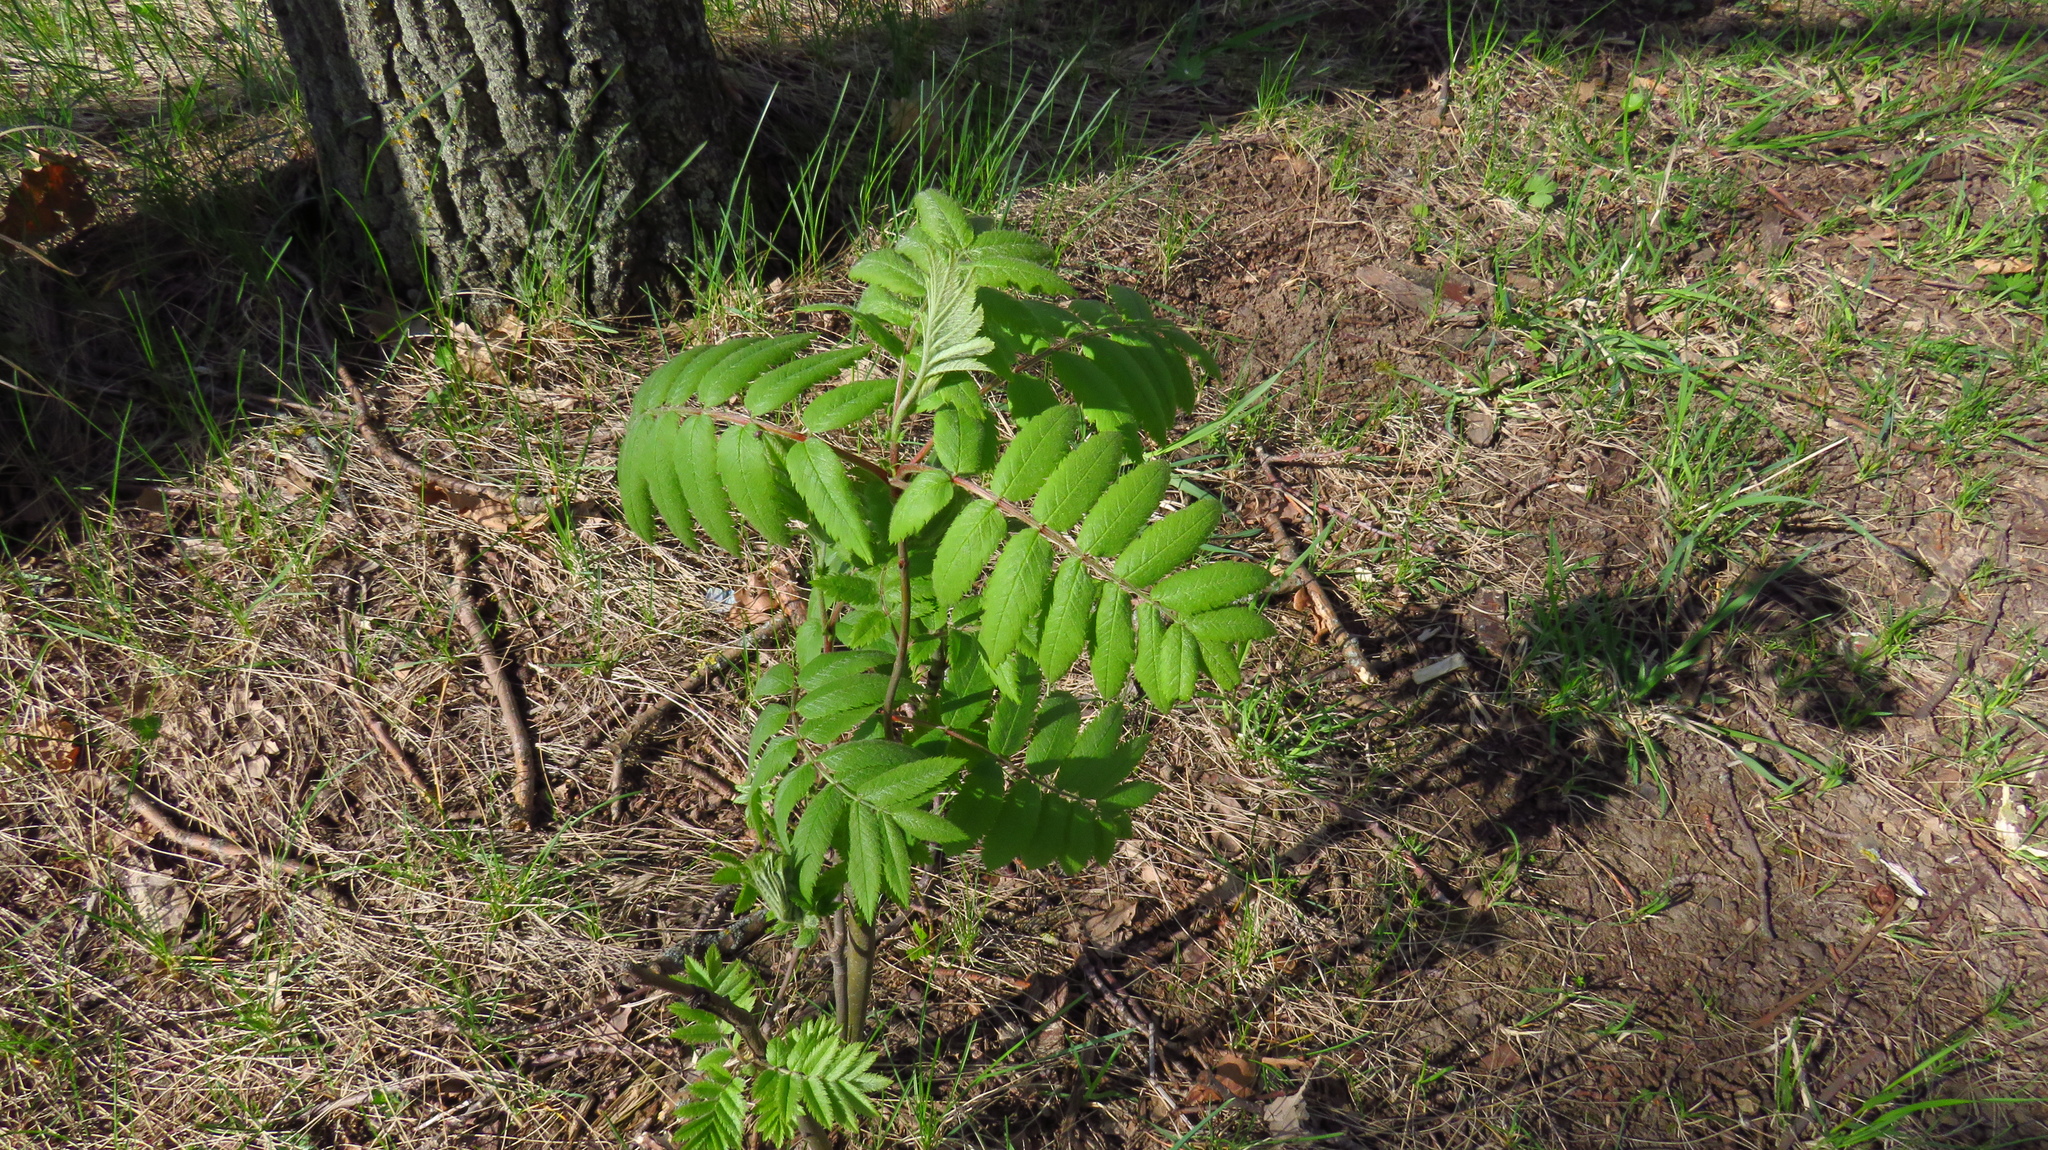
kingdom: Plantae
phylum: Tracheophyta
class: Magnoliopsida
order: Rosales
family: Rosaceae
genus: Sorbus
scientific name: Sorbus aucuparia
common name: Rowan
